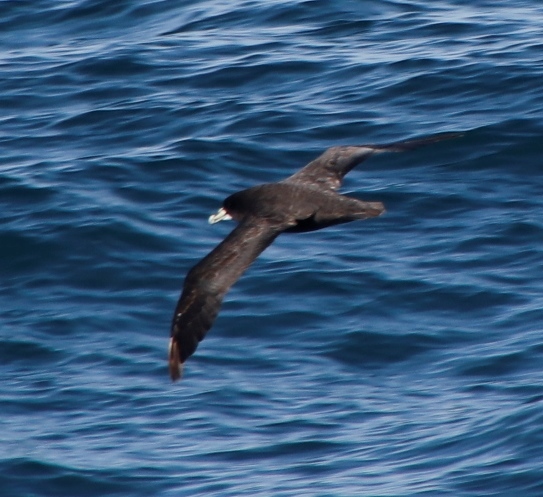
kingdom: Animalia
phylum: Chordata
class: Aves
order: Procellariiformes
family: Procellariidae
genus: Procellaria
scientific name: Procellaria aequinoctialis
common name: White-chinned petrel
